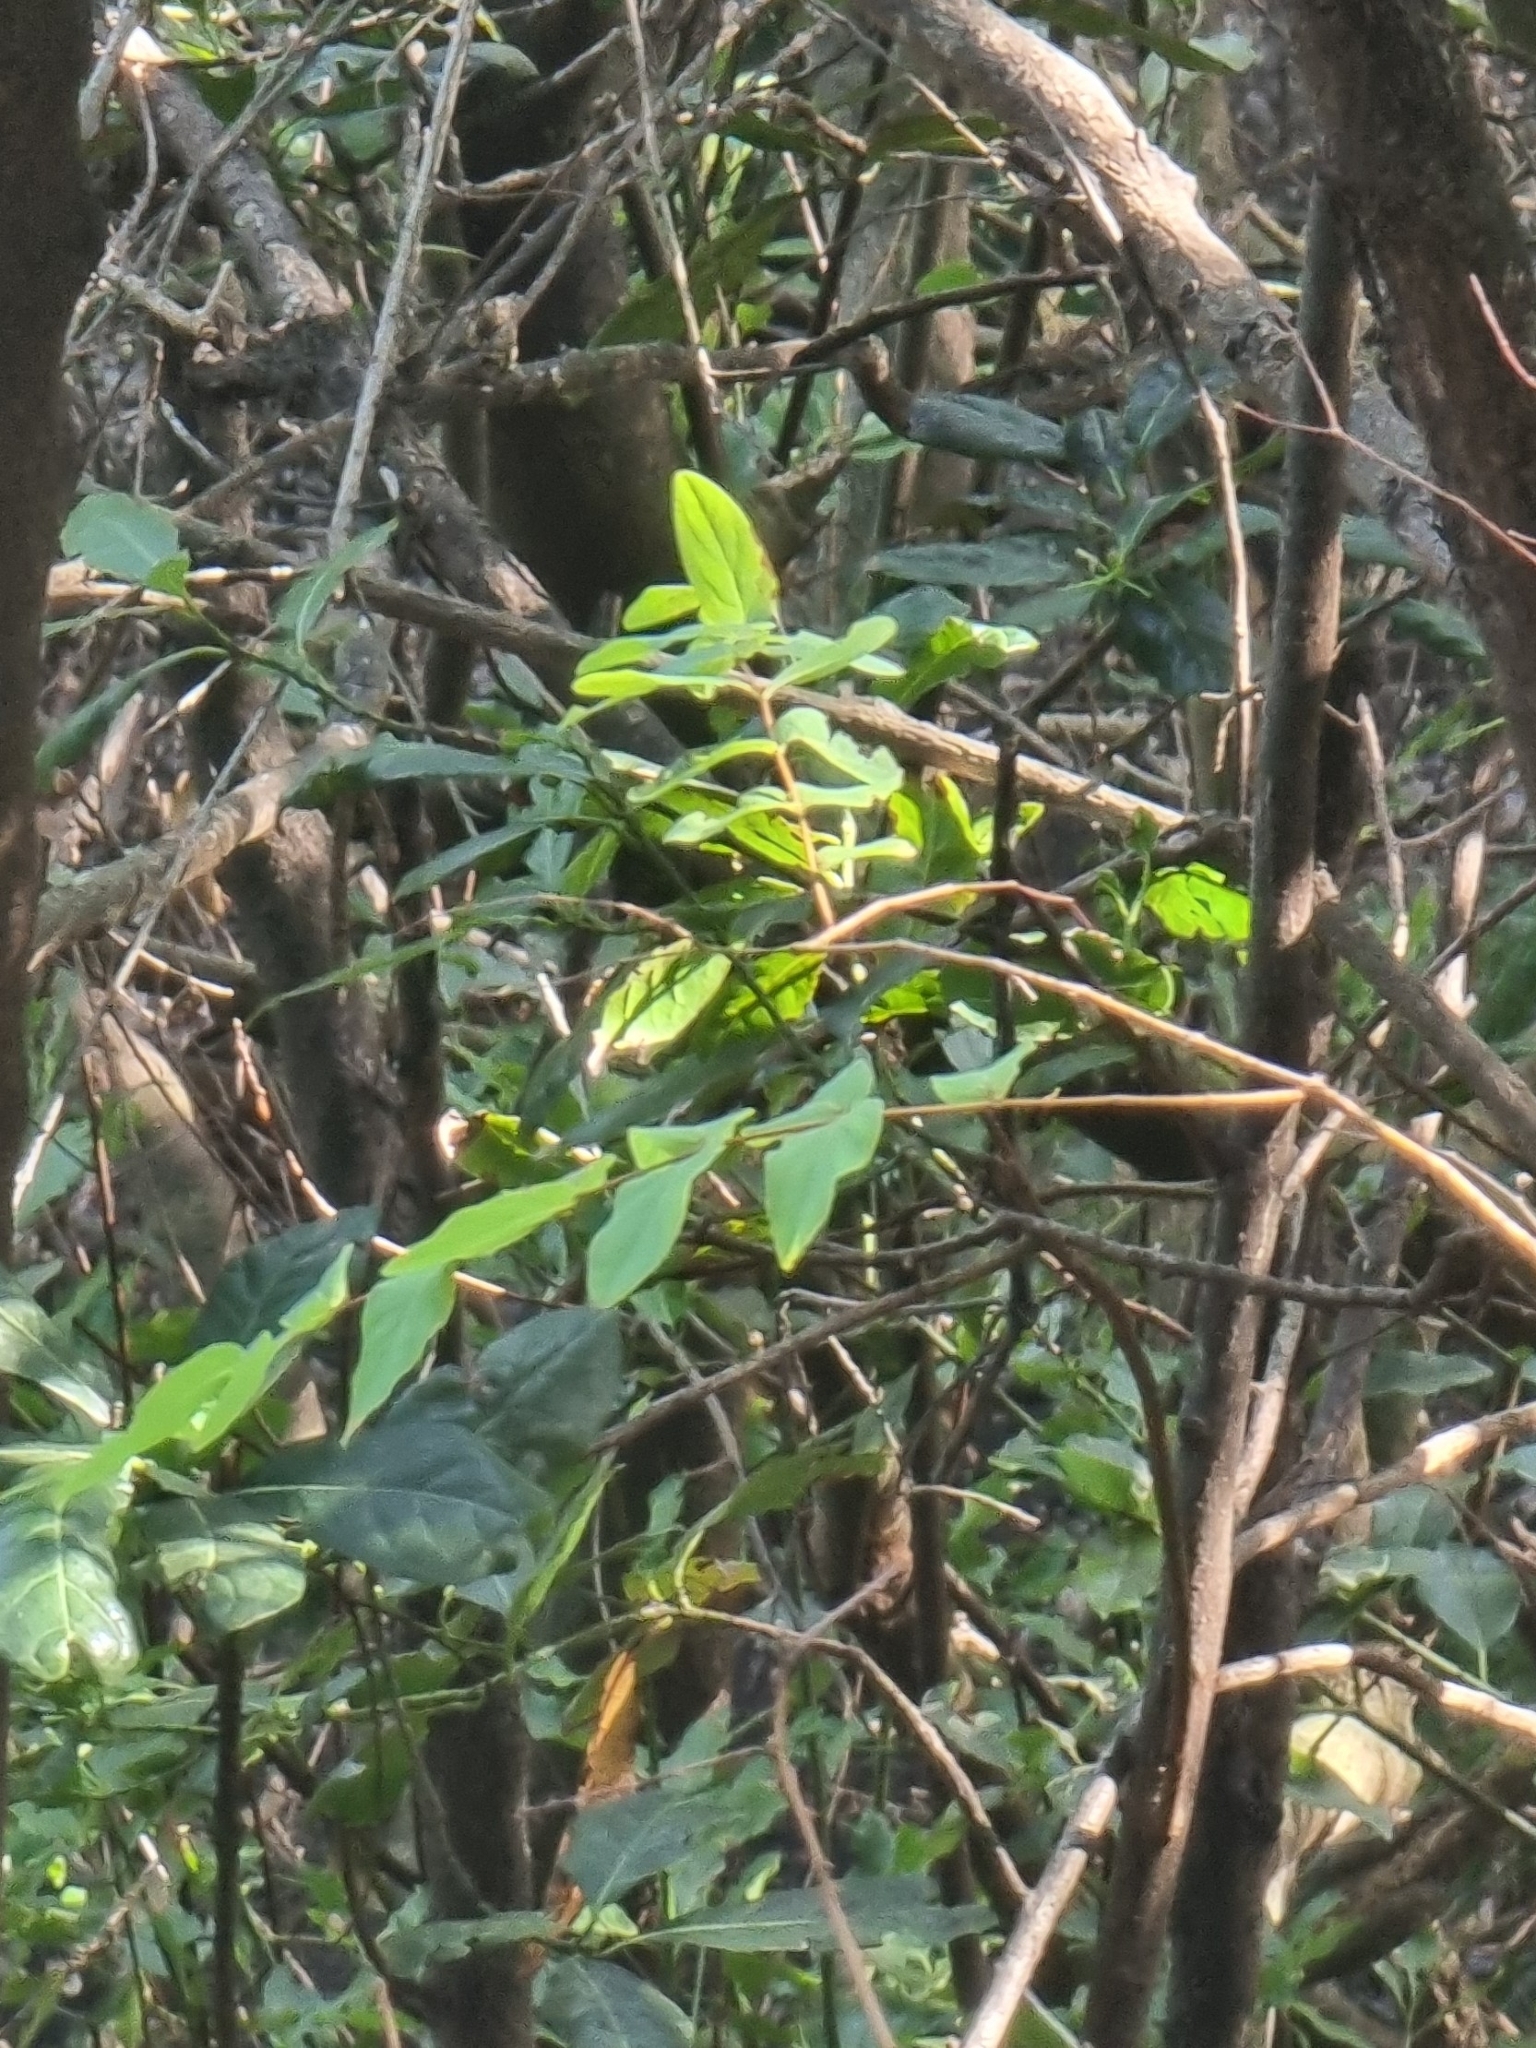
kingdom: Plantae
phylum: Tracheophyta
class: Magnoliopsida
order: Malpighiales
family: Hypericaceae
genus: Hypericum
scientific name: Hypericum grandifolium
